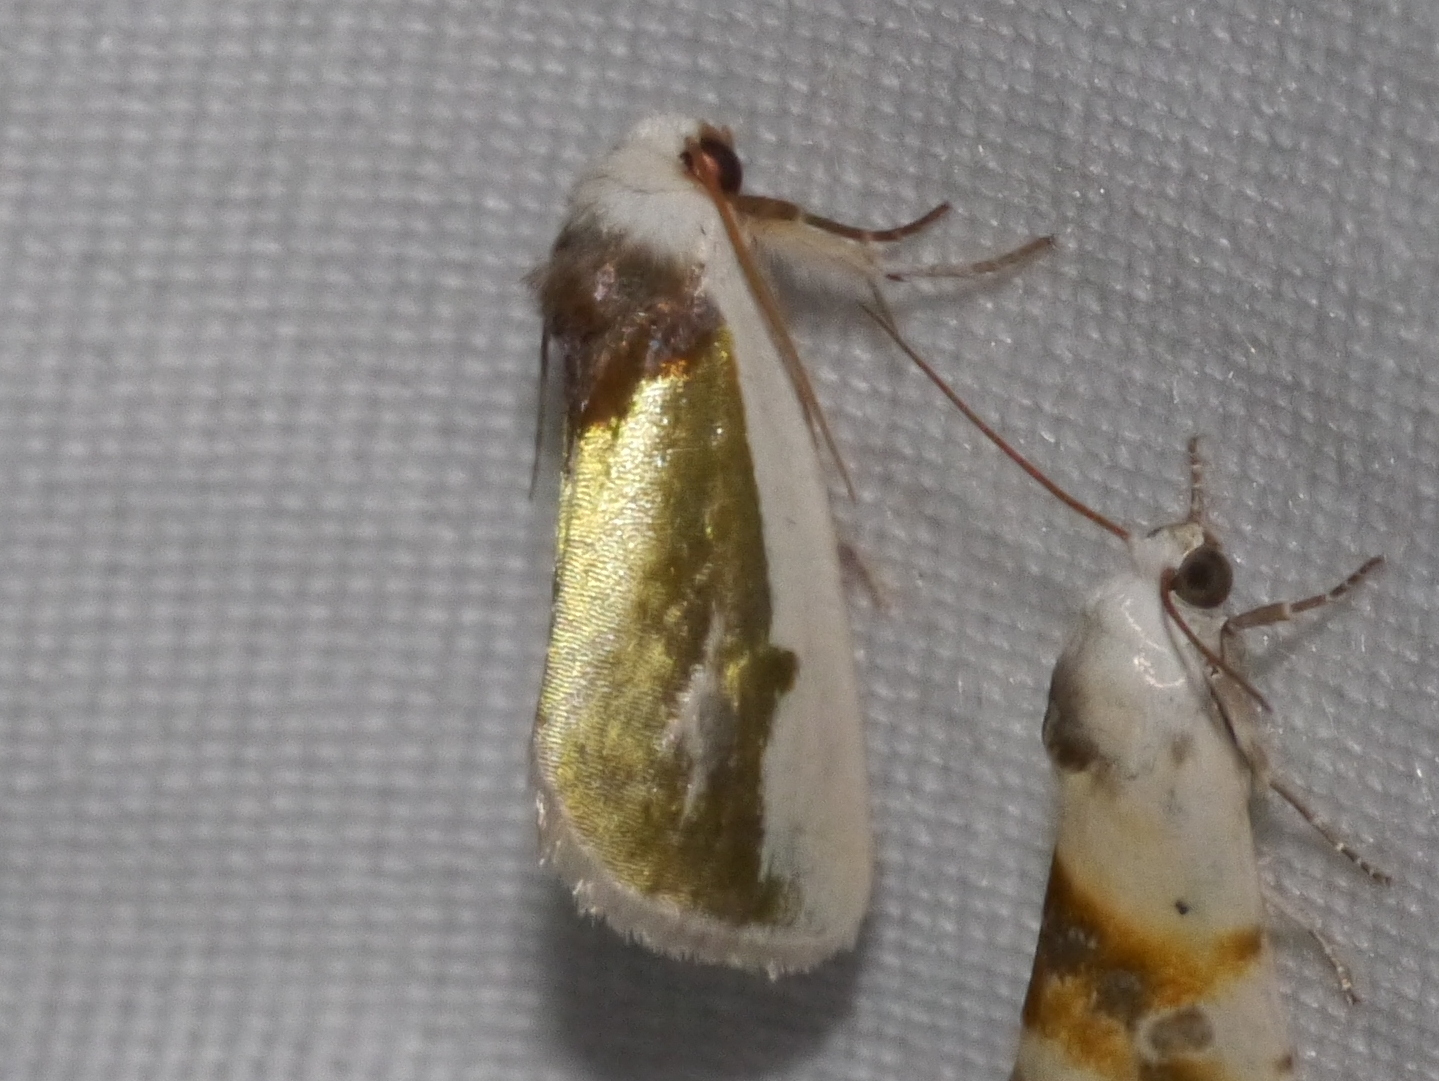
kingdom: Animalia
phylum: Arthropoda
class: Insecta
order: Lepidoptera
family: Noctuidae
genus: Neumoegenia
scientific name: Neumoegenia poetica
